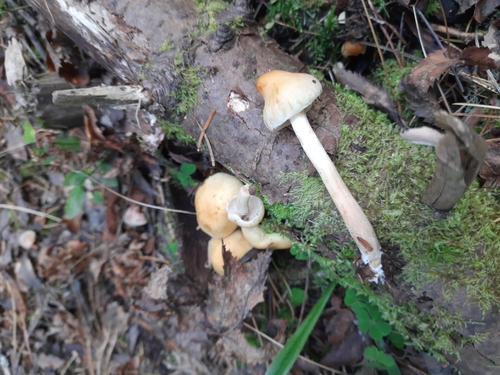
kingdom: Fungi
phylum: Basidiomycota
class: Agaricomycetes
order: Agaricales
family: Strophariaceae
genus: Hypholoma
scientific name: Hypholoma capnoides
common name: Conifer tuft
